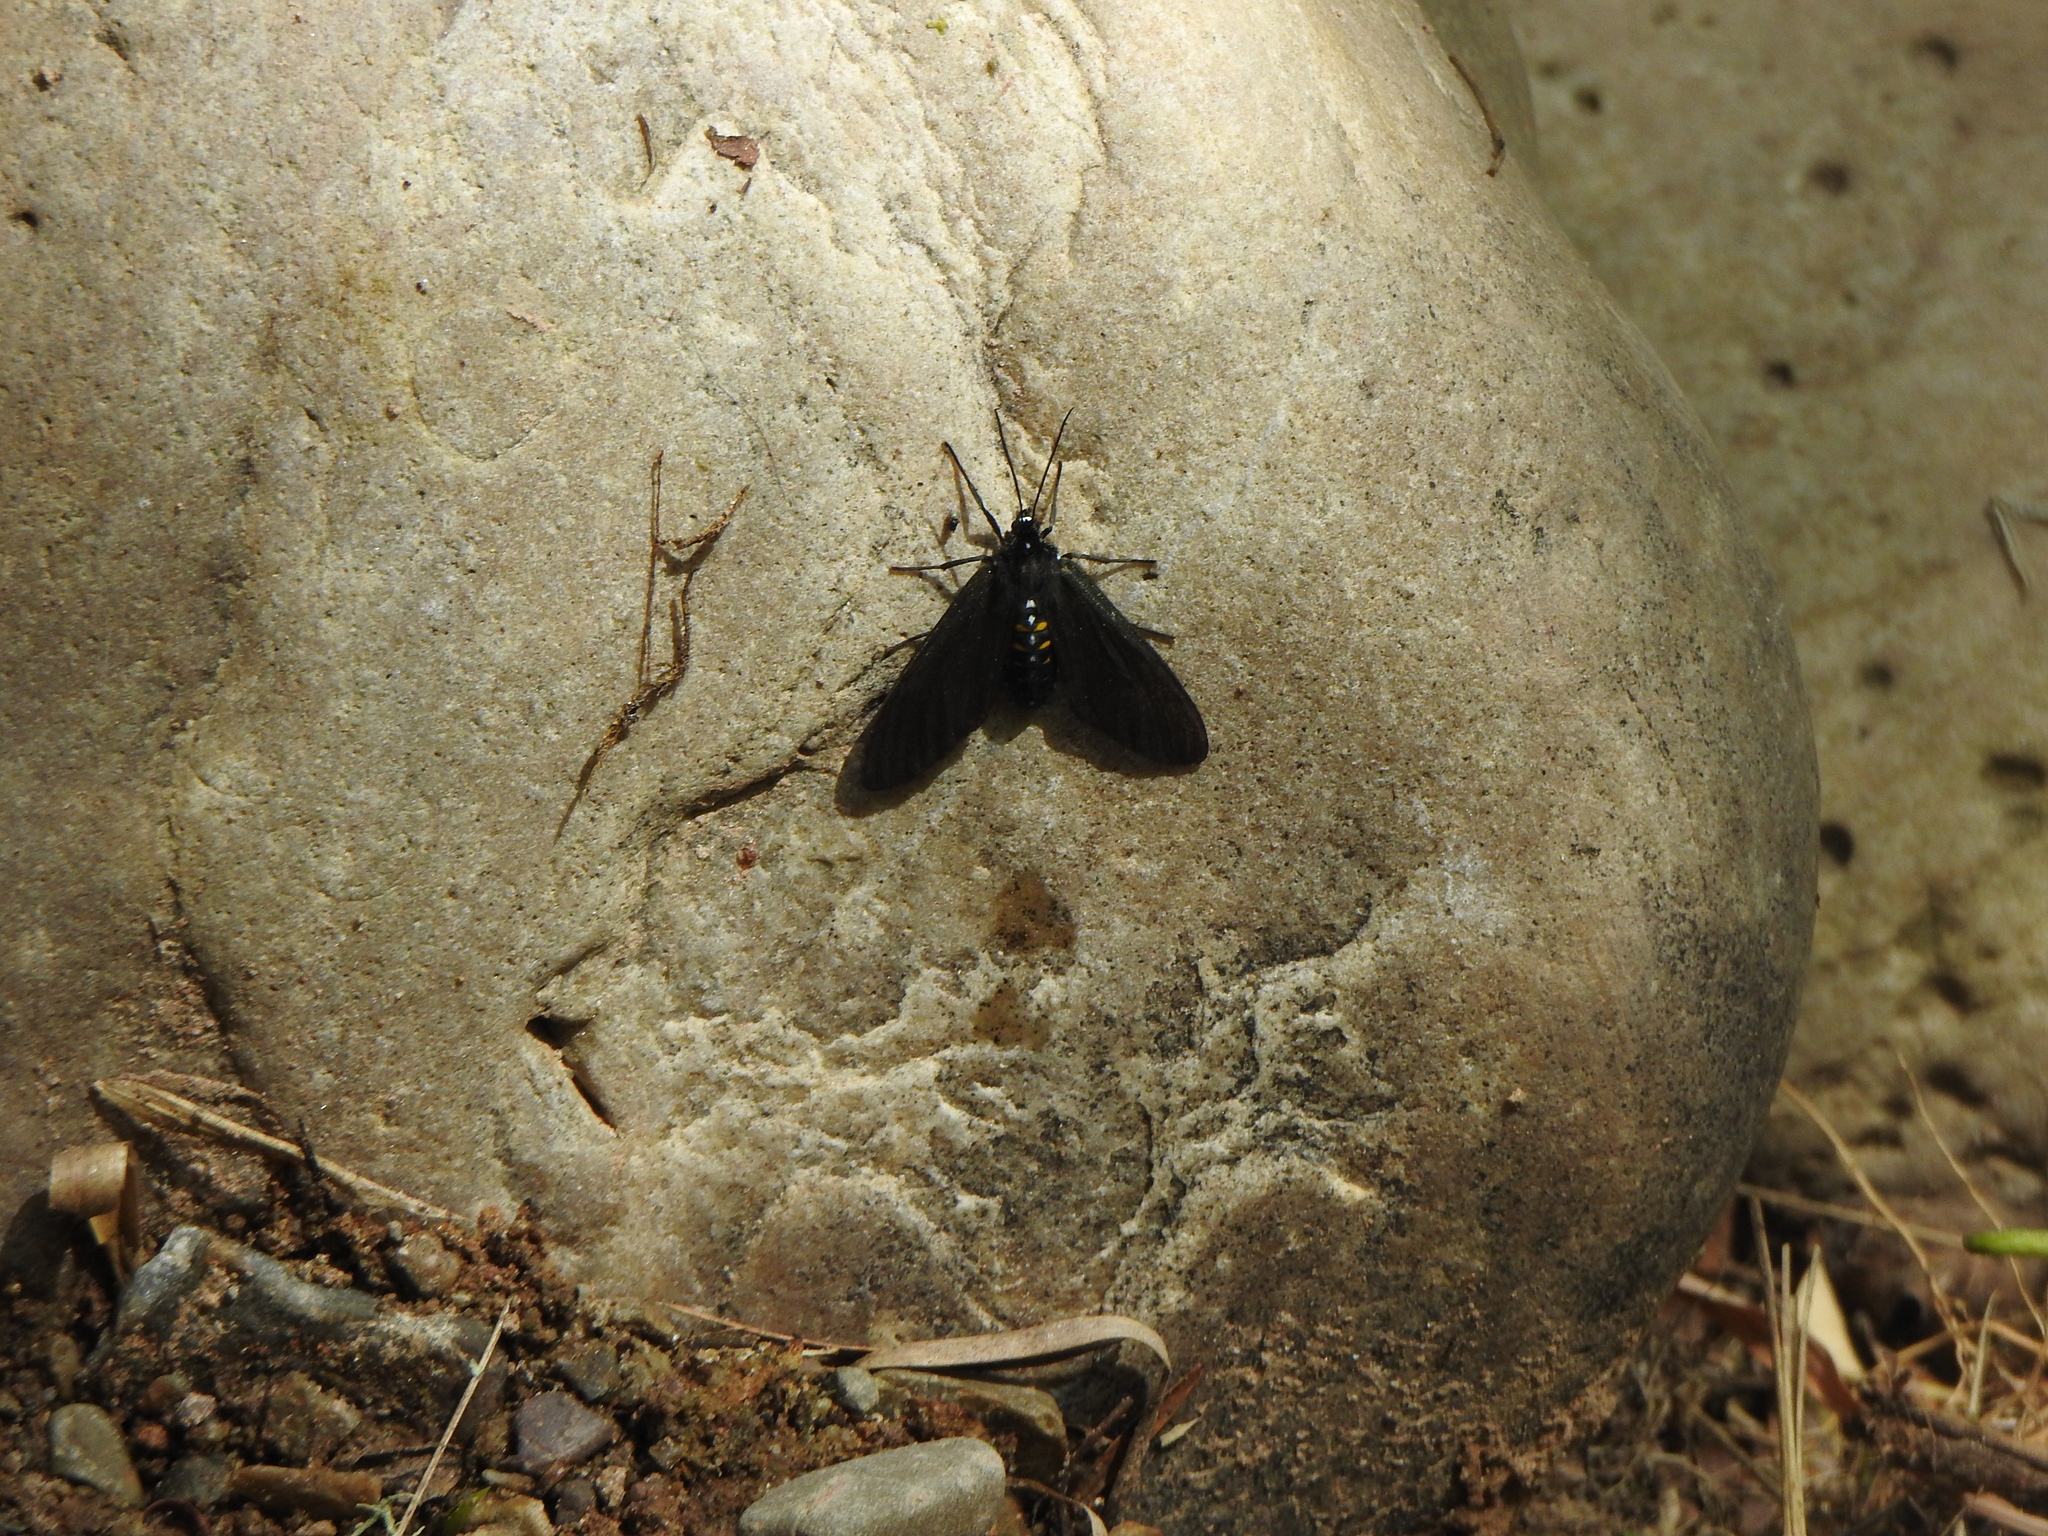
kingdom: Animalia
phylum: Arthropoda
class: Insecta
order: Lepidoptera
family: Erebidae
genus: Chrysocale
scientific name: Chrysocale ferens
